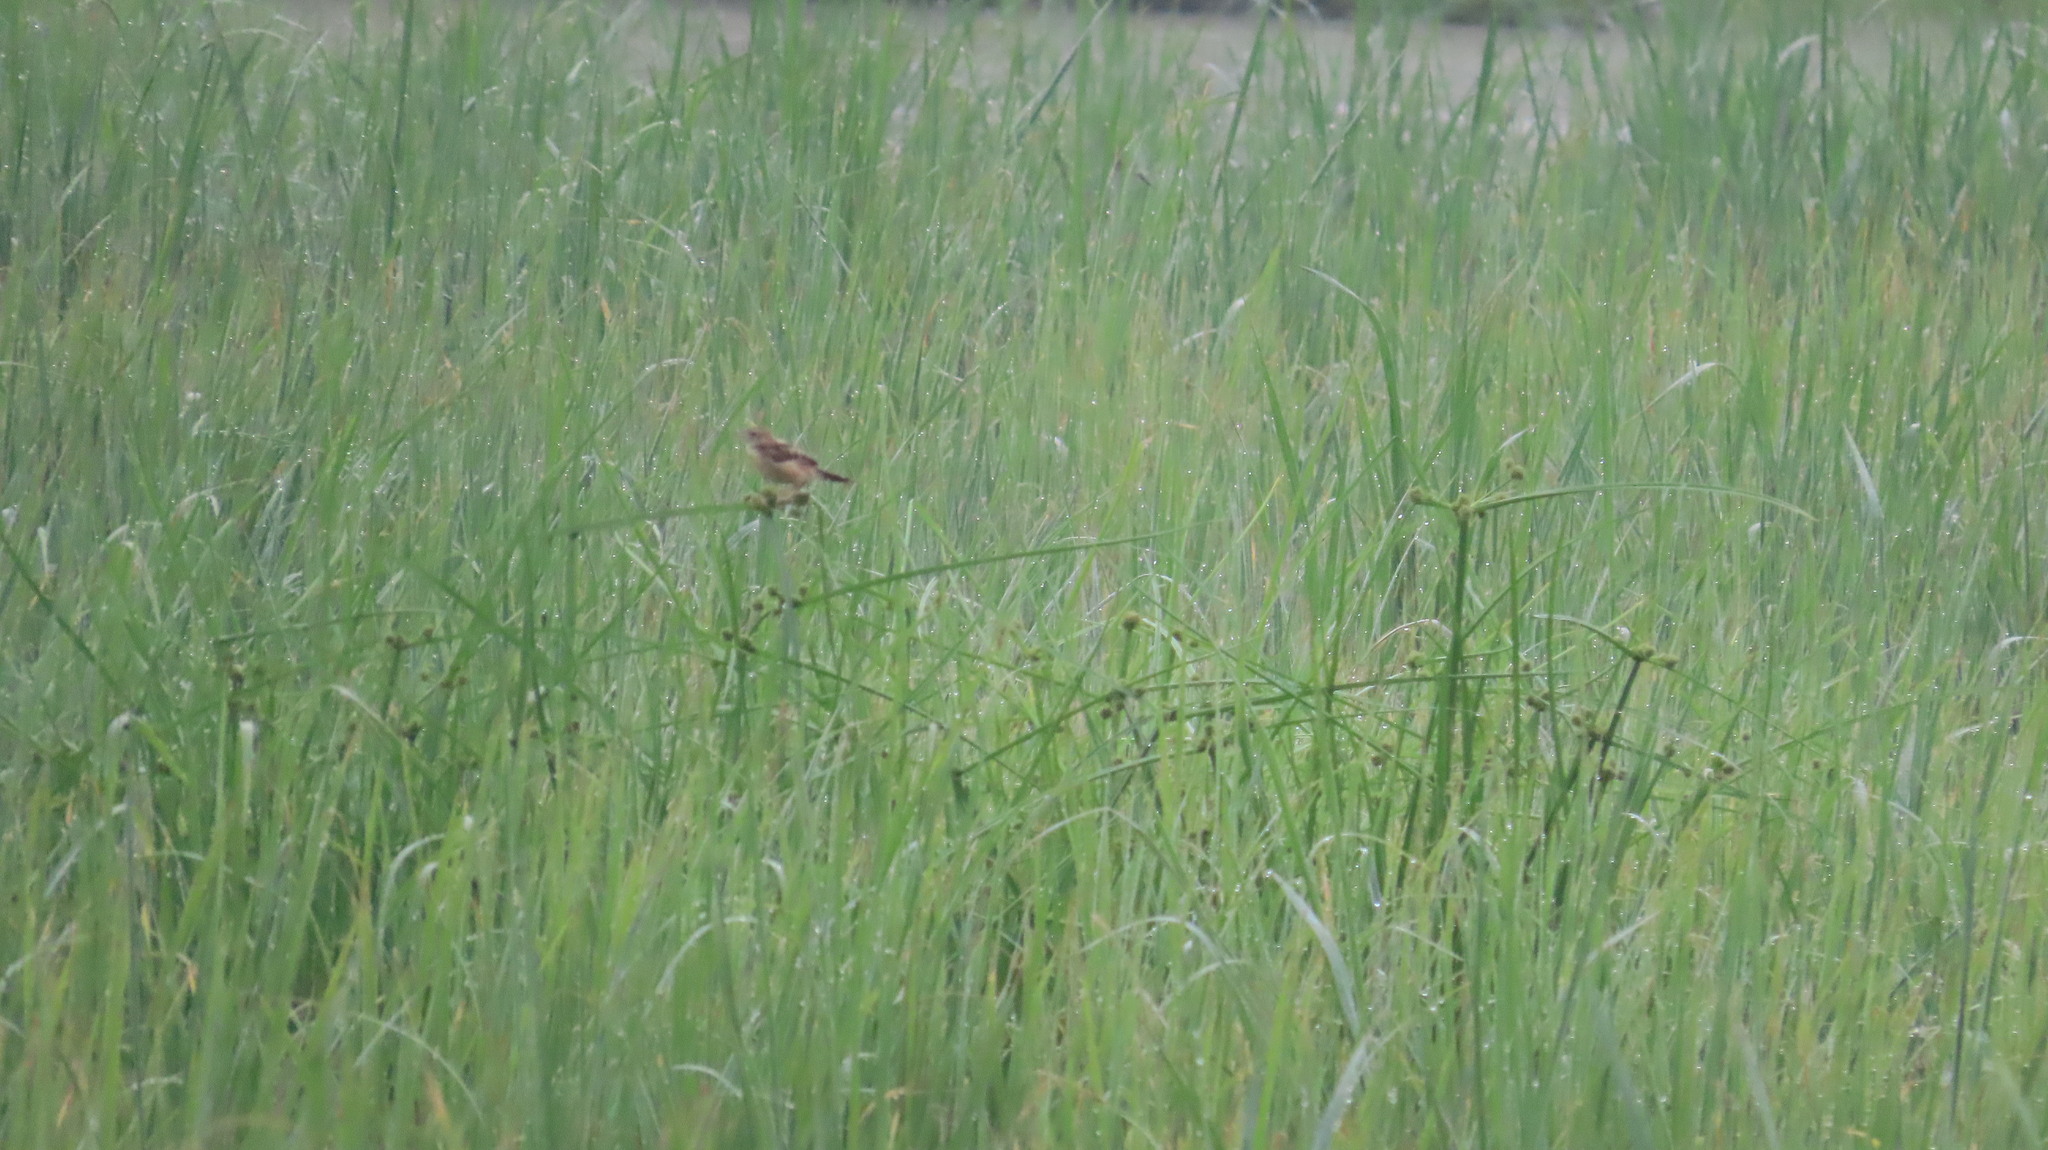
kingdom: Animalia
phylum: Chordata
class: Aves
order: Passeriformes
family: Cisticolidae
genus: Cisticola
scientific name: Cisticola juncidis
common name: Zitting cisticola
